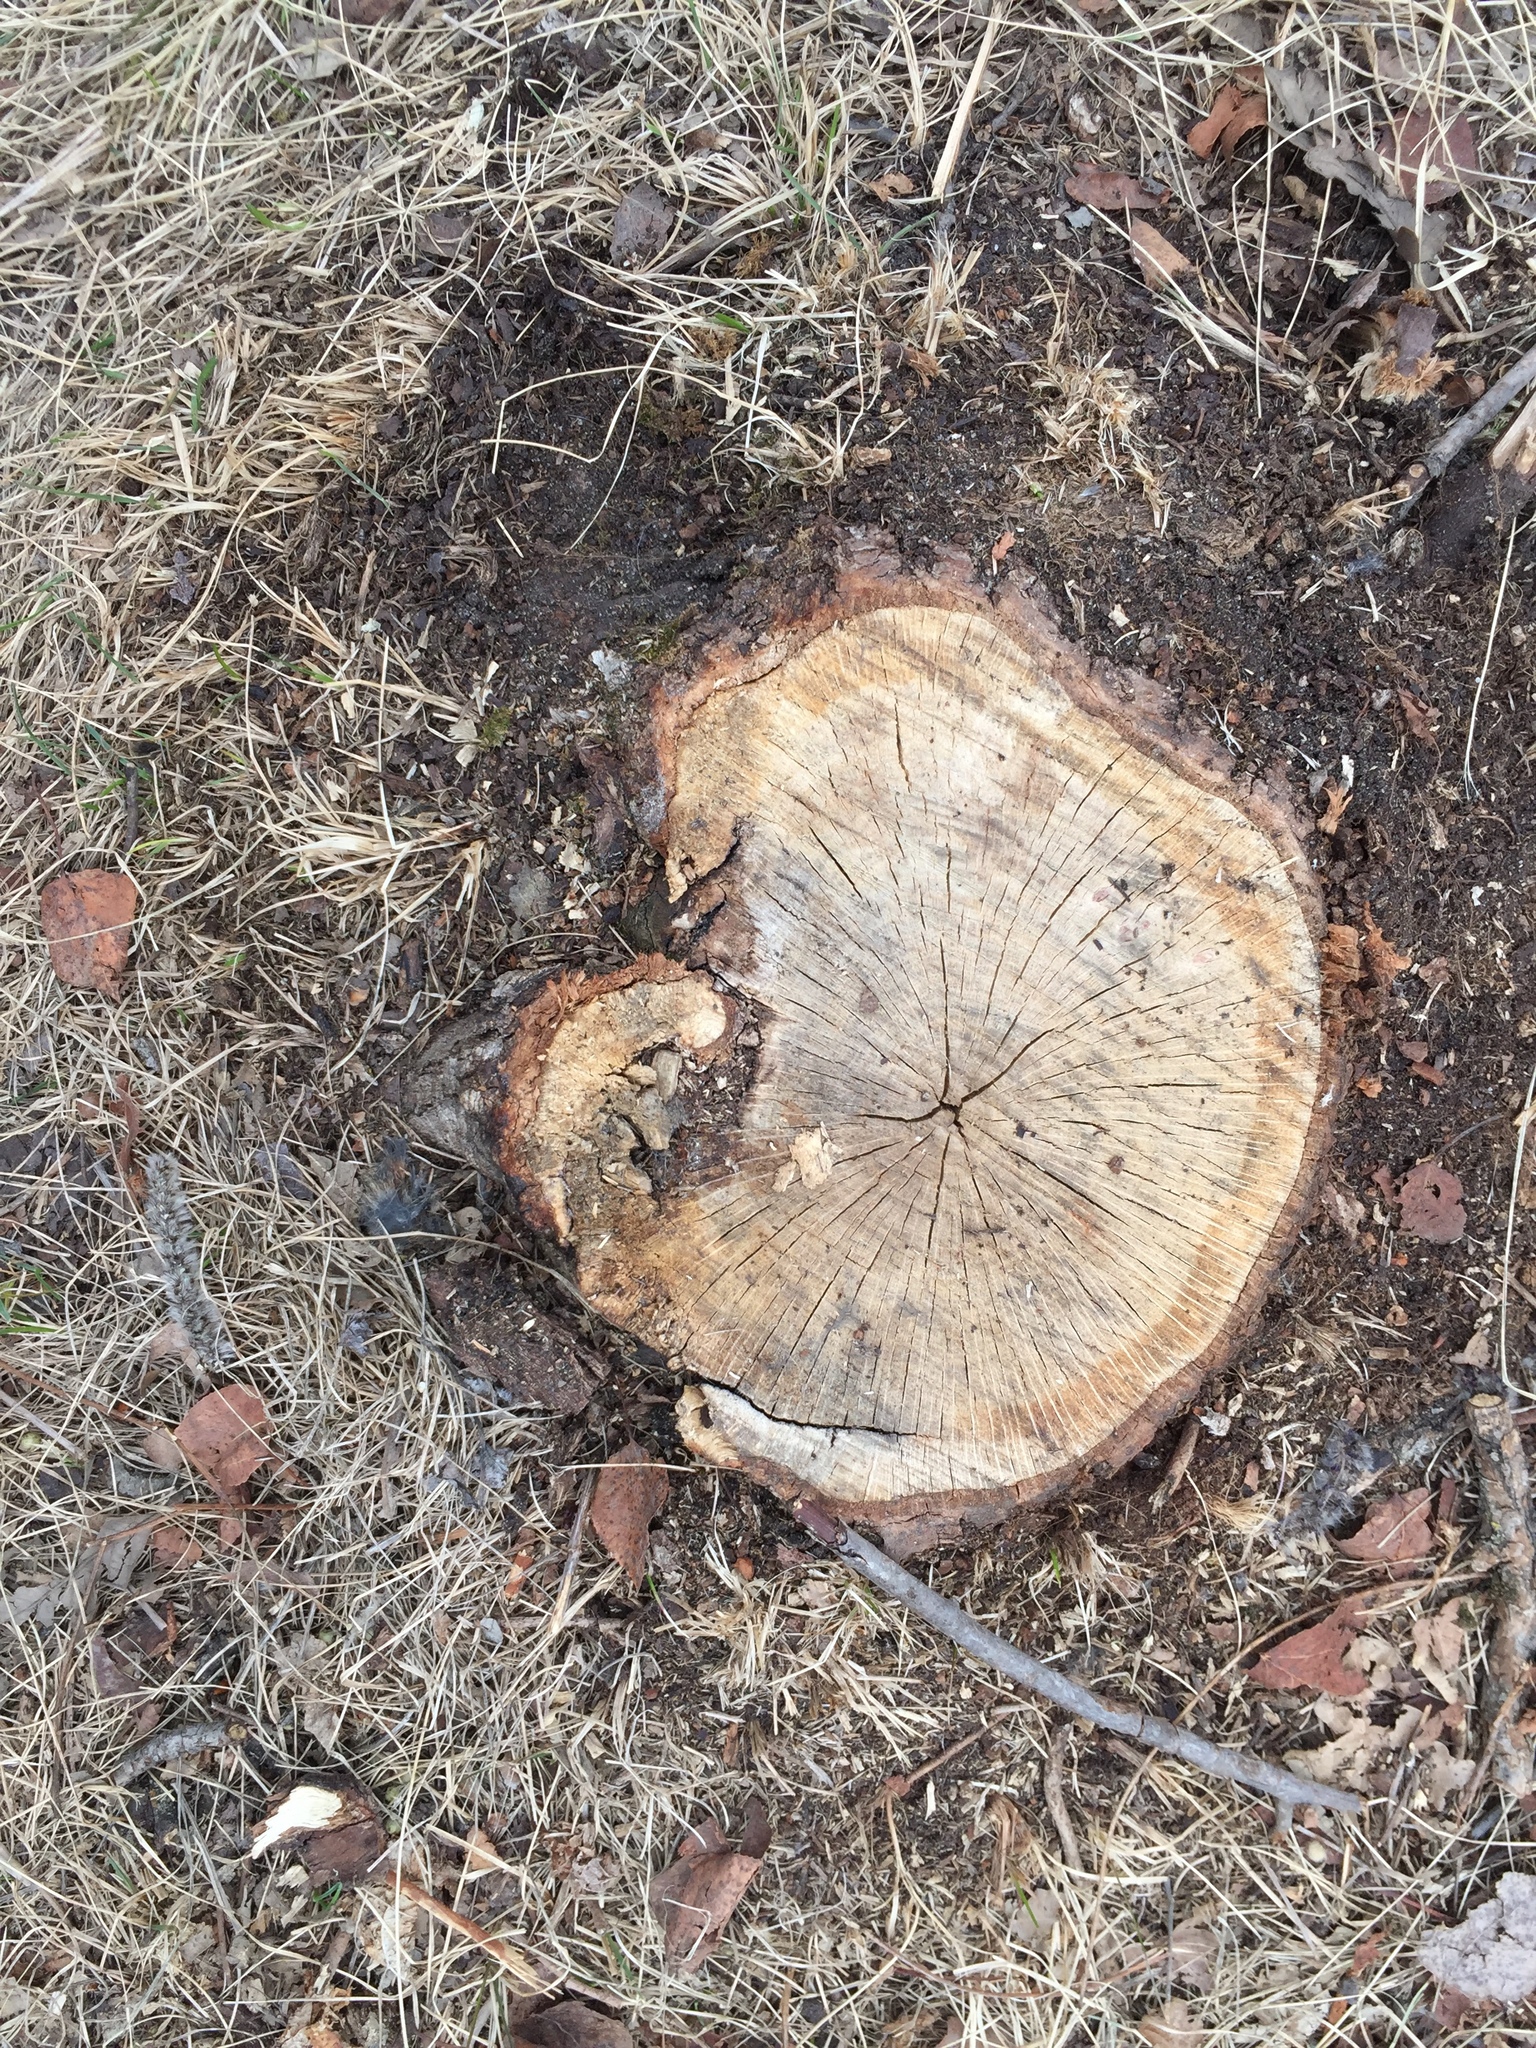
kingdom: Plantae
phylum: Tracheophyta
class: Magnoliopsida
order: Fagales
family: Fagaceae
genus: Quercus
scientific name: Quercus macrocarpa
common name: Bur oak
